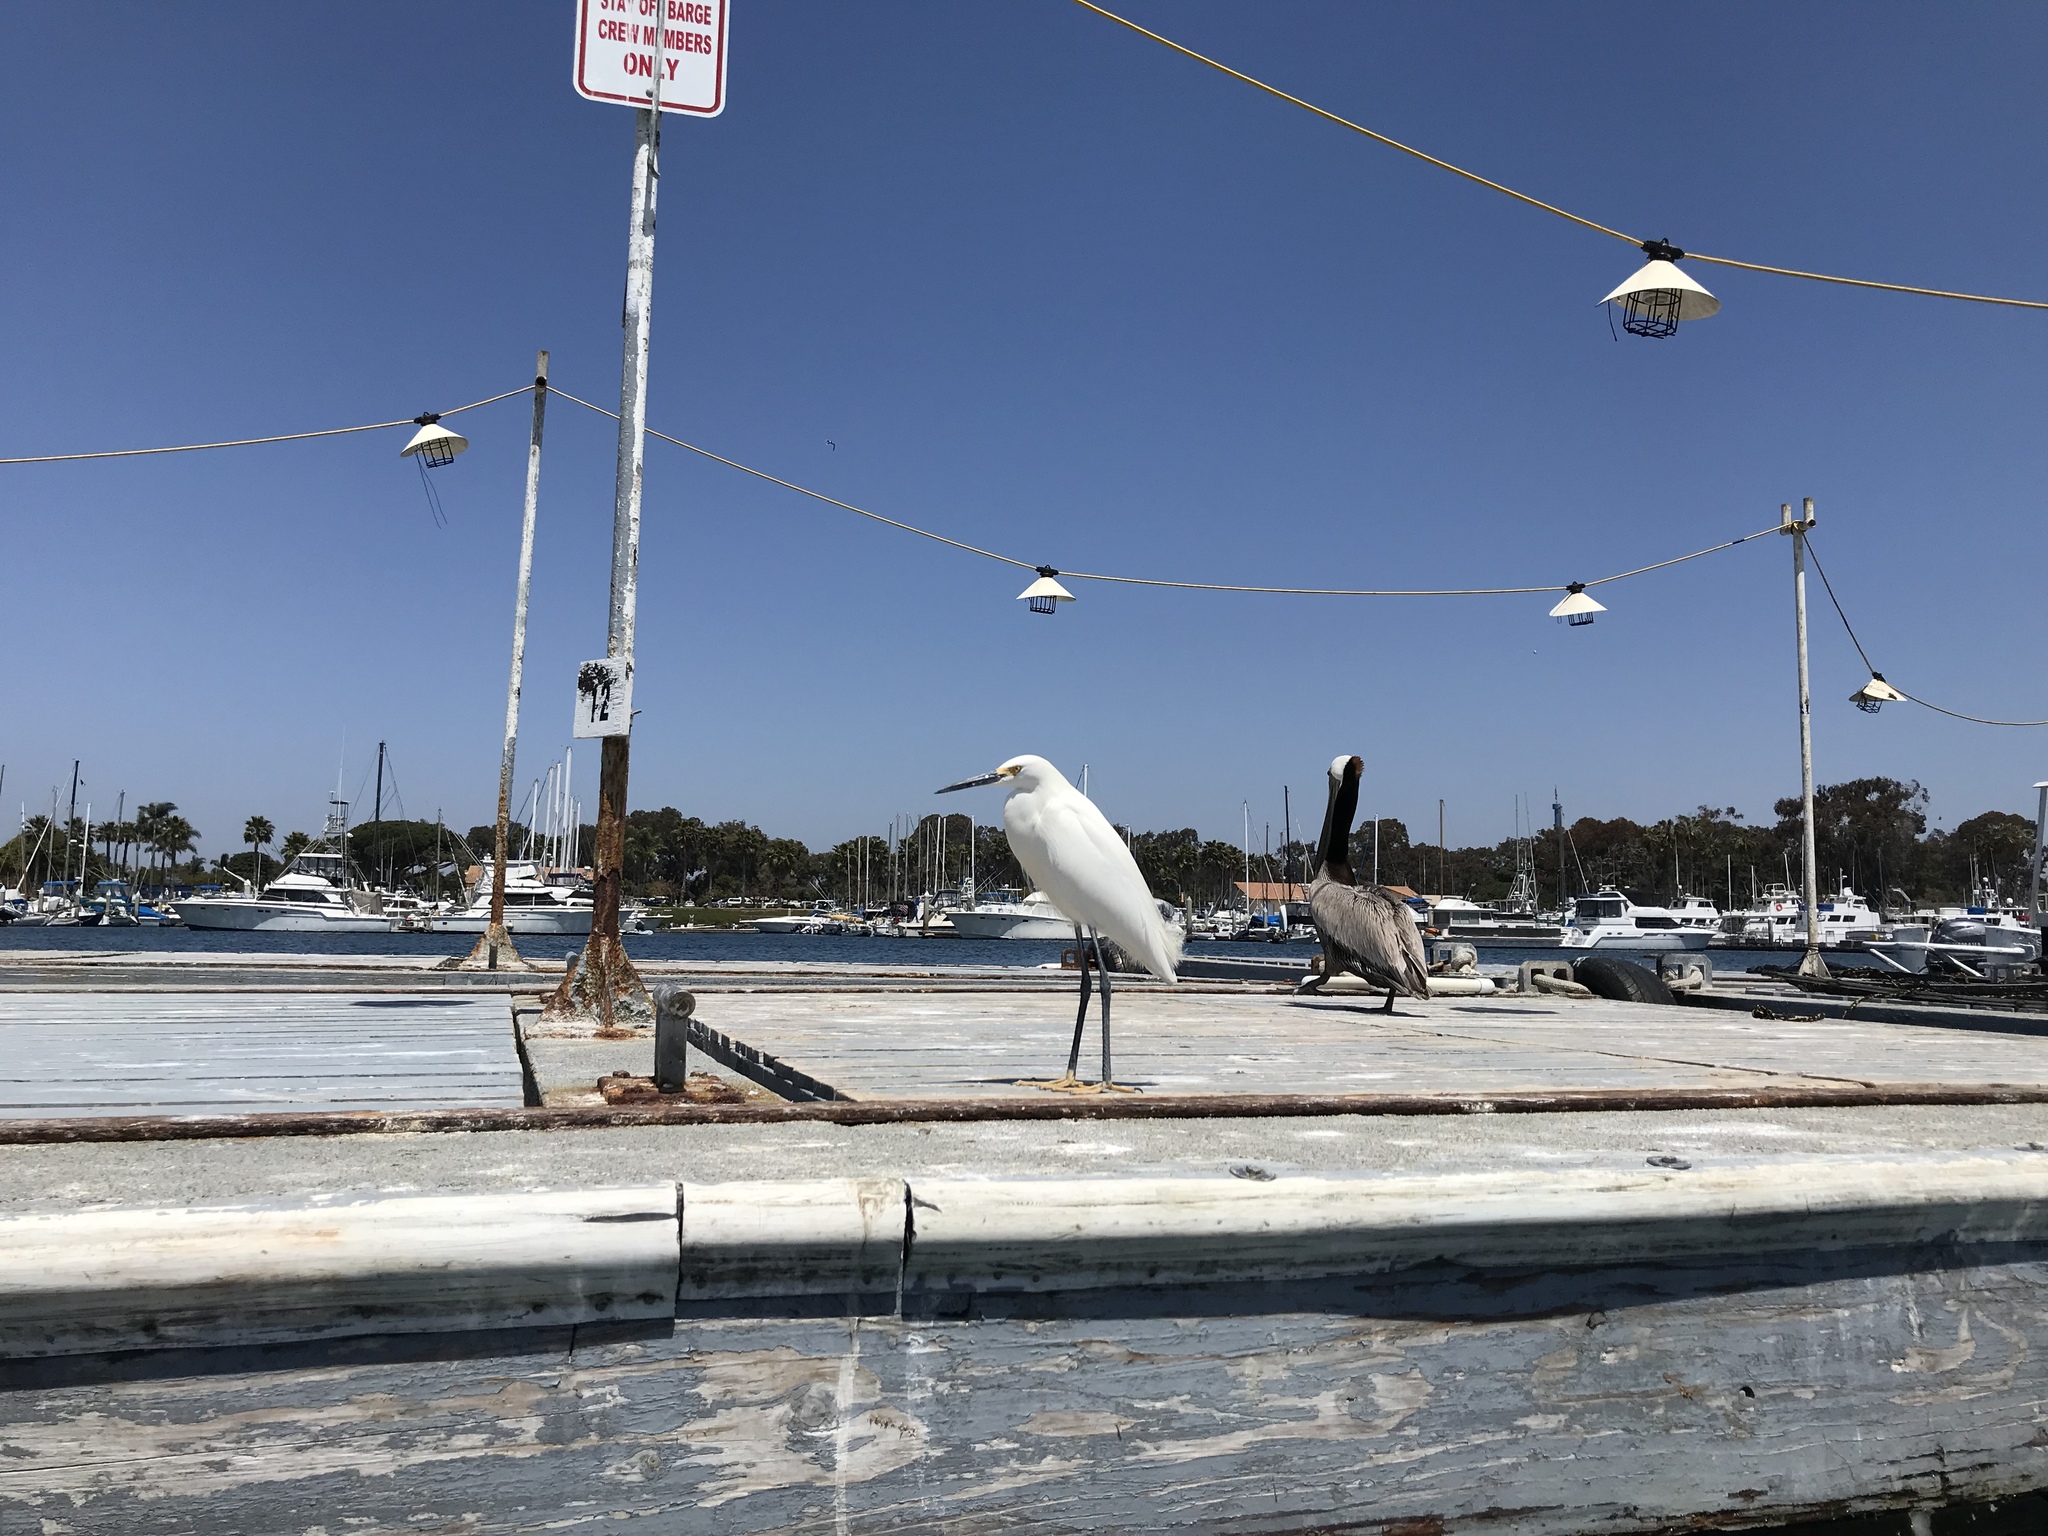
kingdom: Animalia
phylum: Chordata
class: Aves
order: Pelecaniformes
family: Ardeidae
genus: Egretta
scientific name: Egretta thula
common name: Snowy egret
